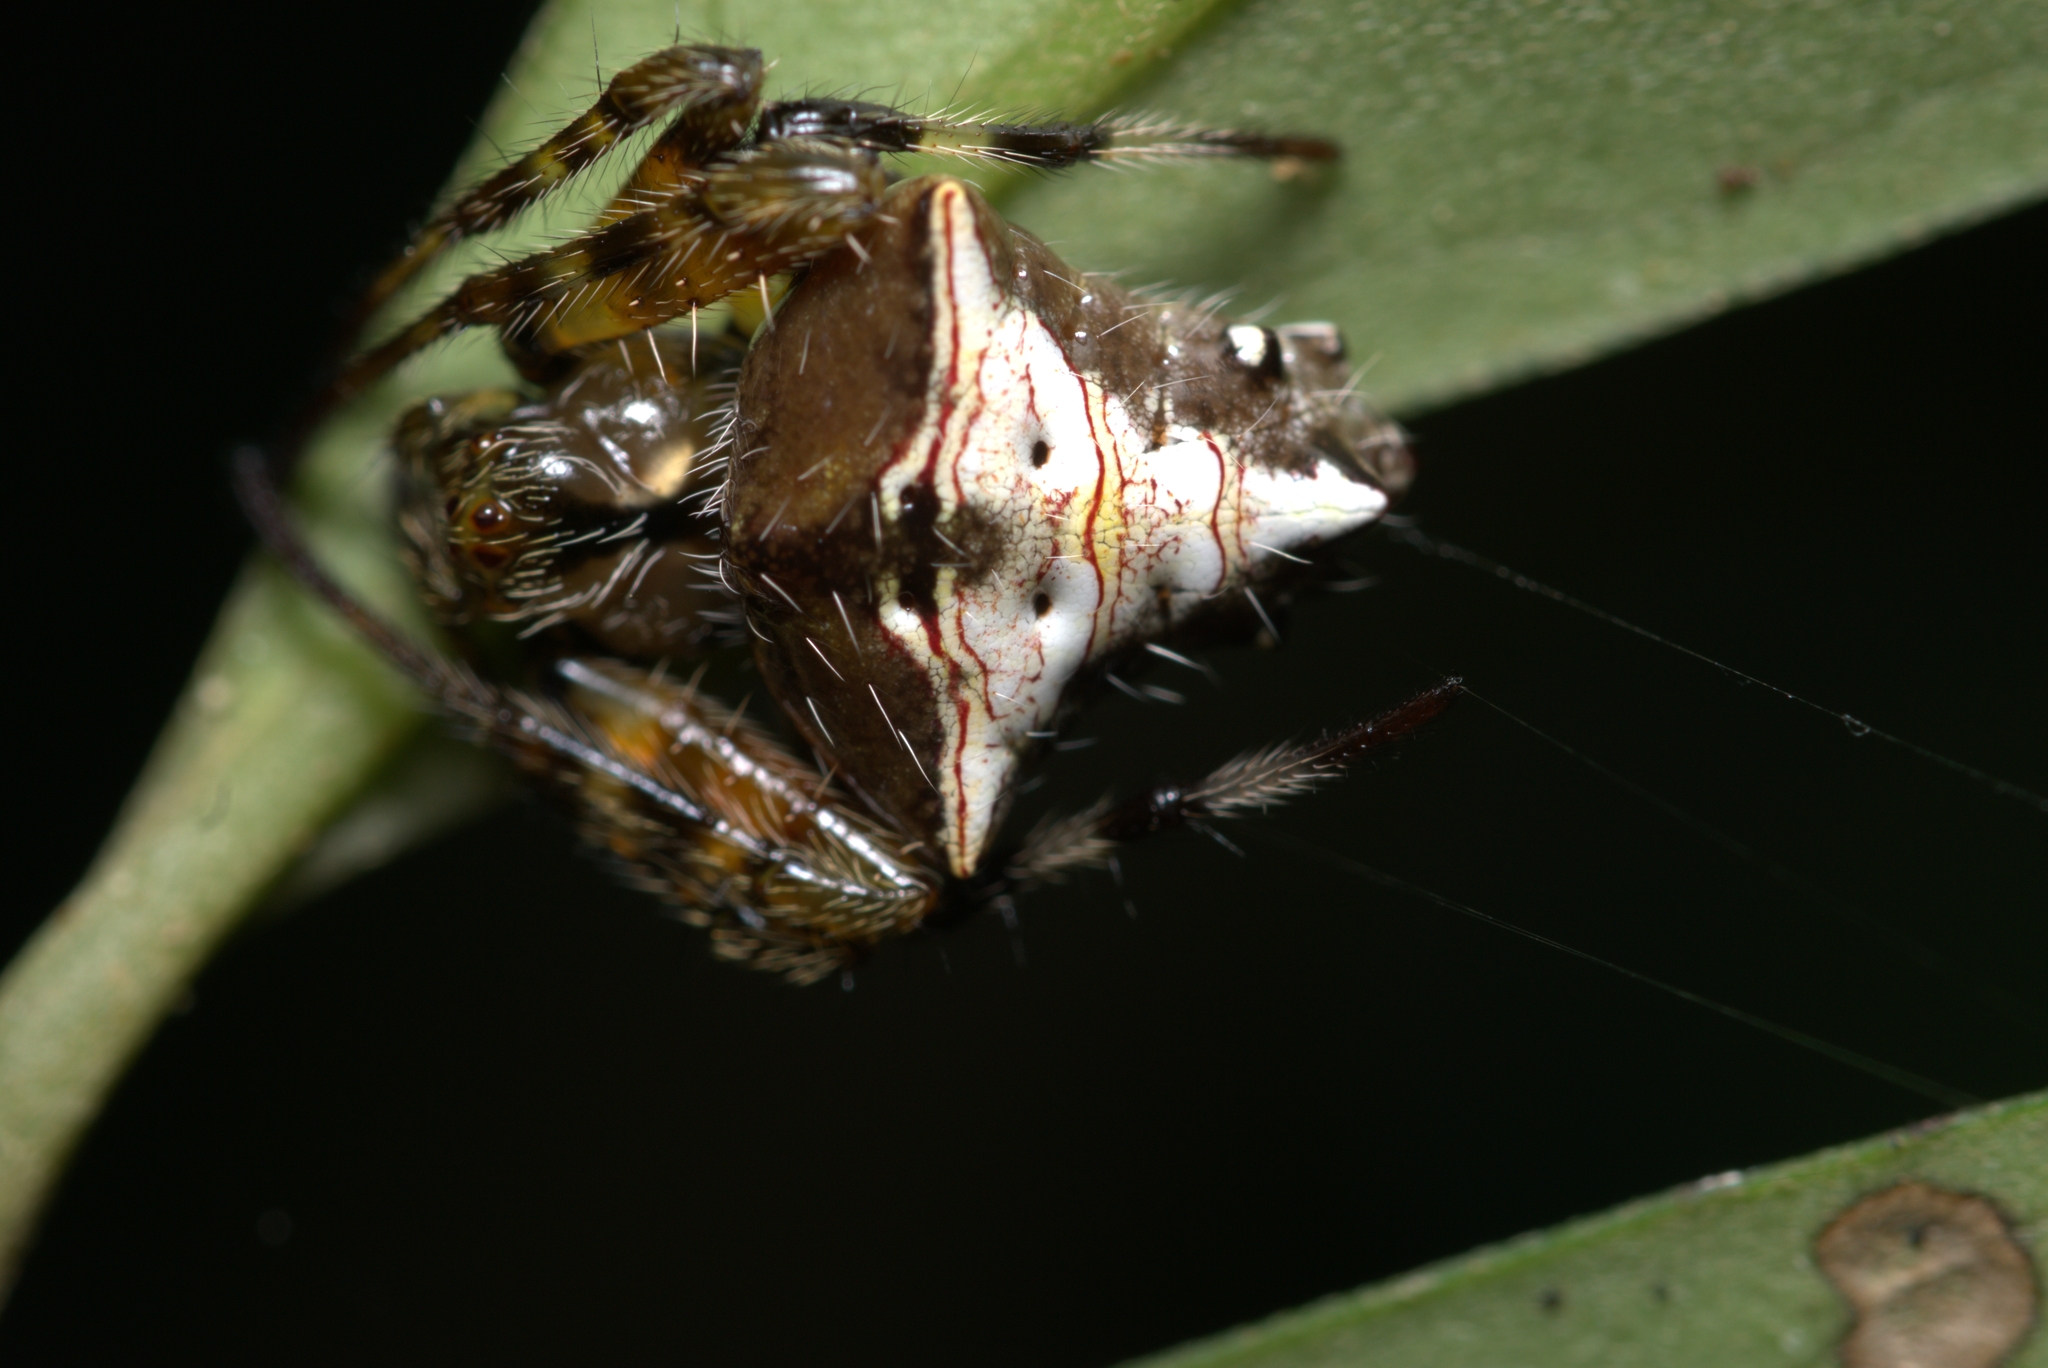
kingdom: Animalia
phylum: Arthropoda
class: Arachnida
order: Araneae
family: Araneidae
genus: Verrucosa
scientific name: Verrucosa scapofracta
